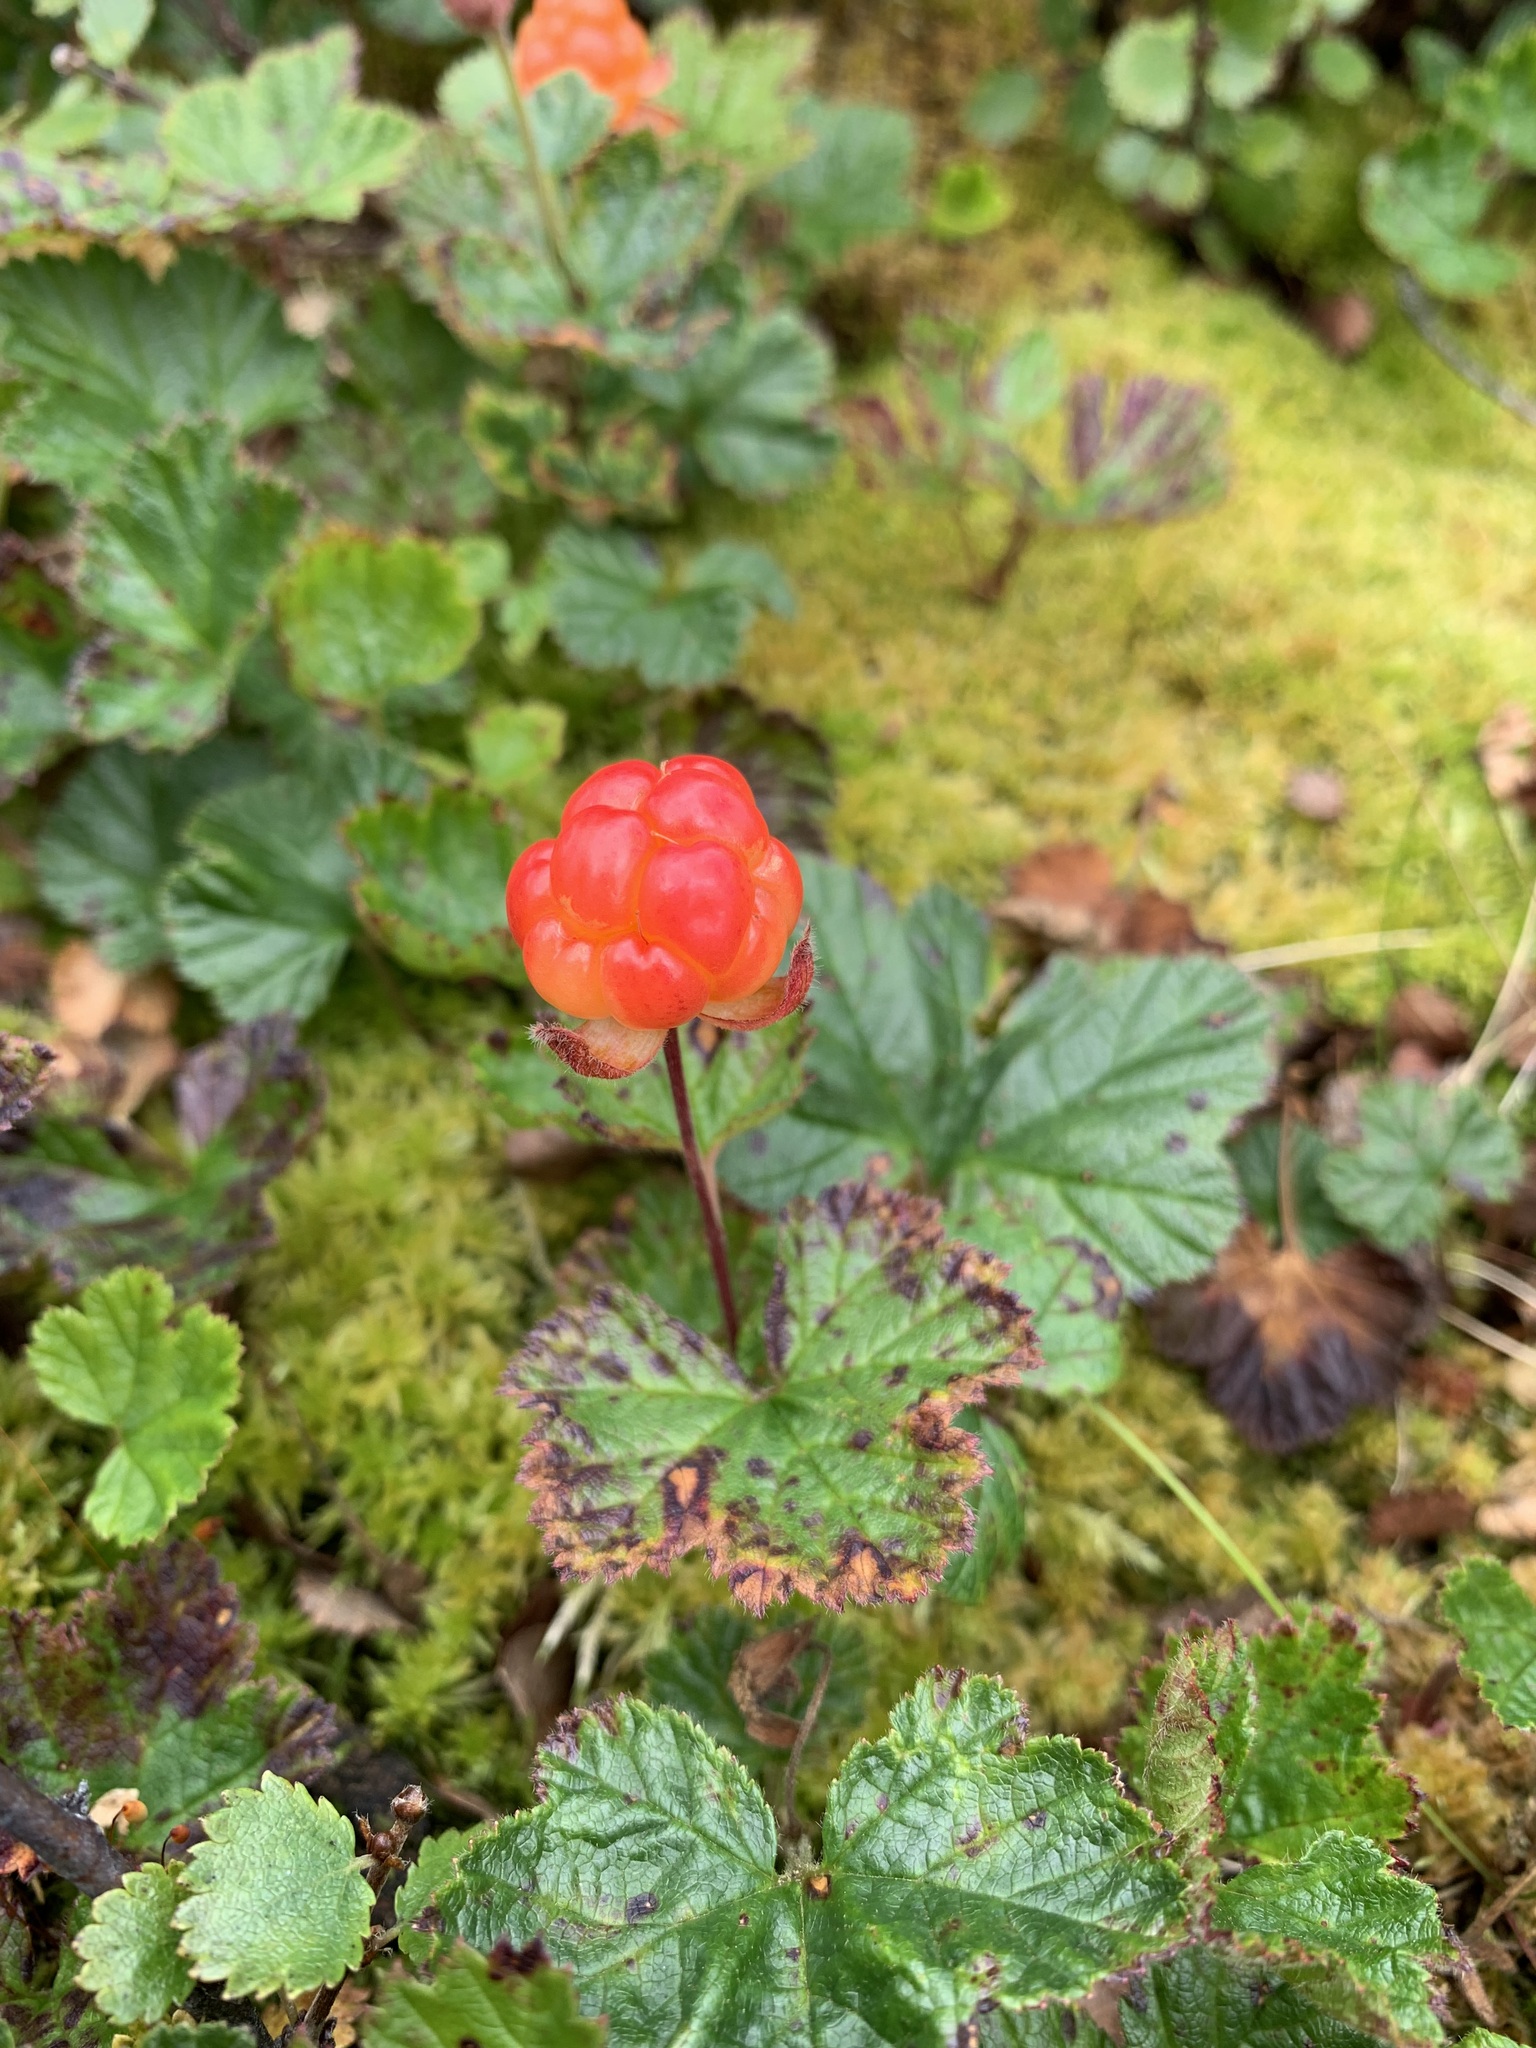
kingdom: Plantae
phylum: Tracheophyta
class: Magnoliopsida
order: Rosales
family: Rosaceae
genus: Rubus
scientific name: Rubus chamaemorus
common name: Cloudberry
